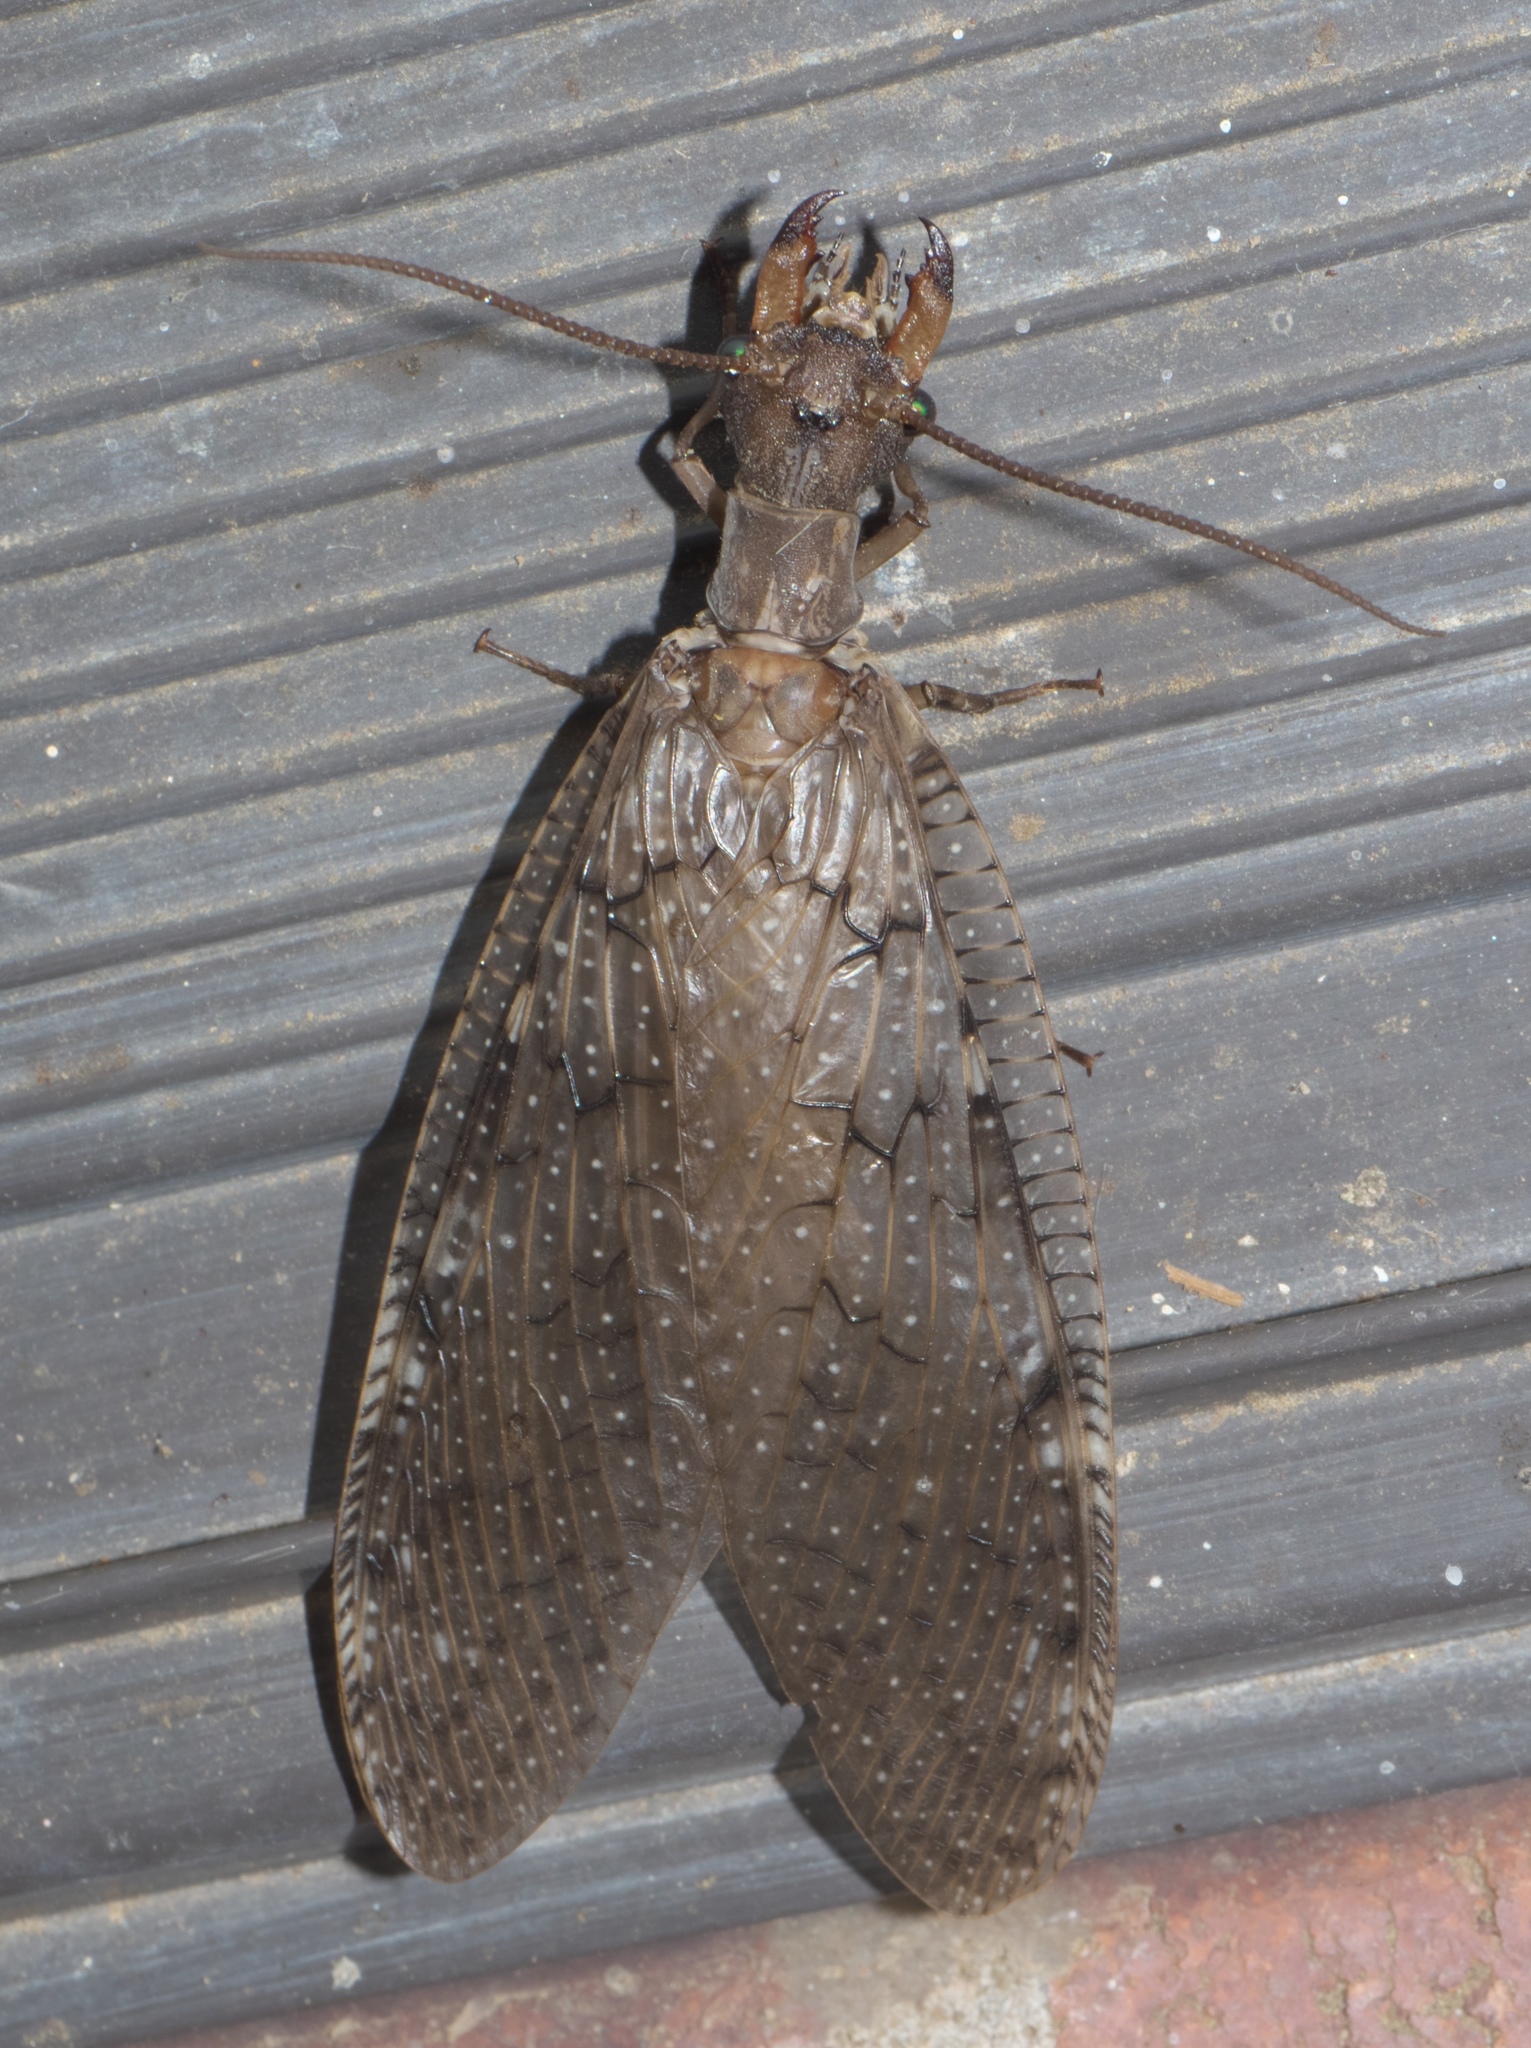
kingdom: Animalia
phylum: Arthropoda
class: Insecta
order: Megaloptera
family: Corydalidae
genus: Corydalus
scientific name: Corydalus cornutus
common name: Dobsonfly
